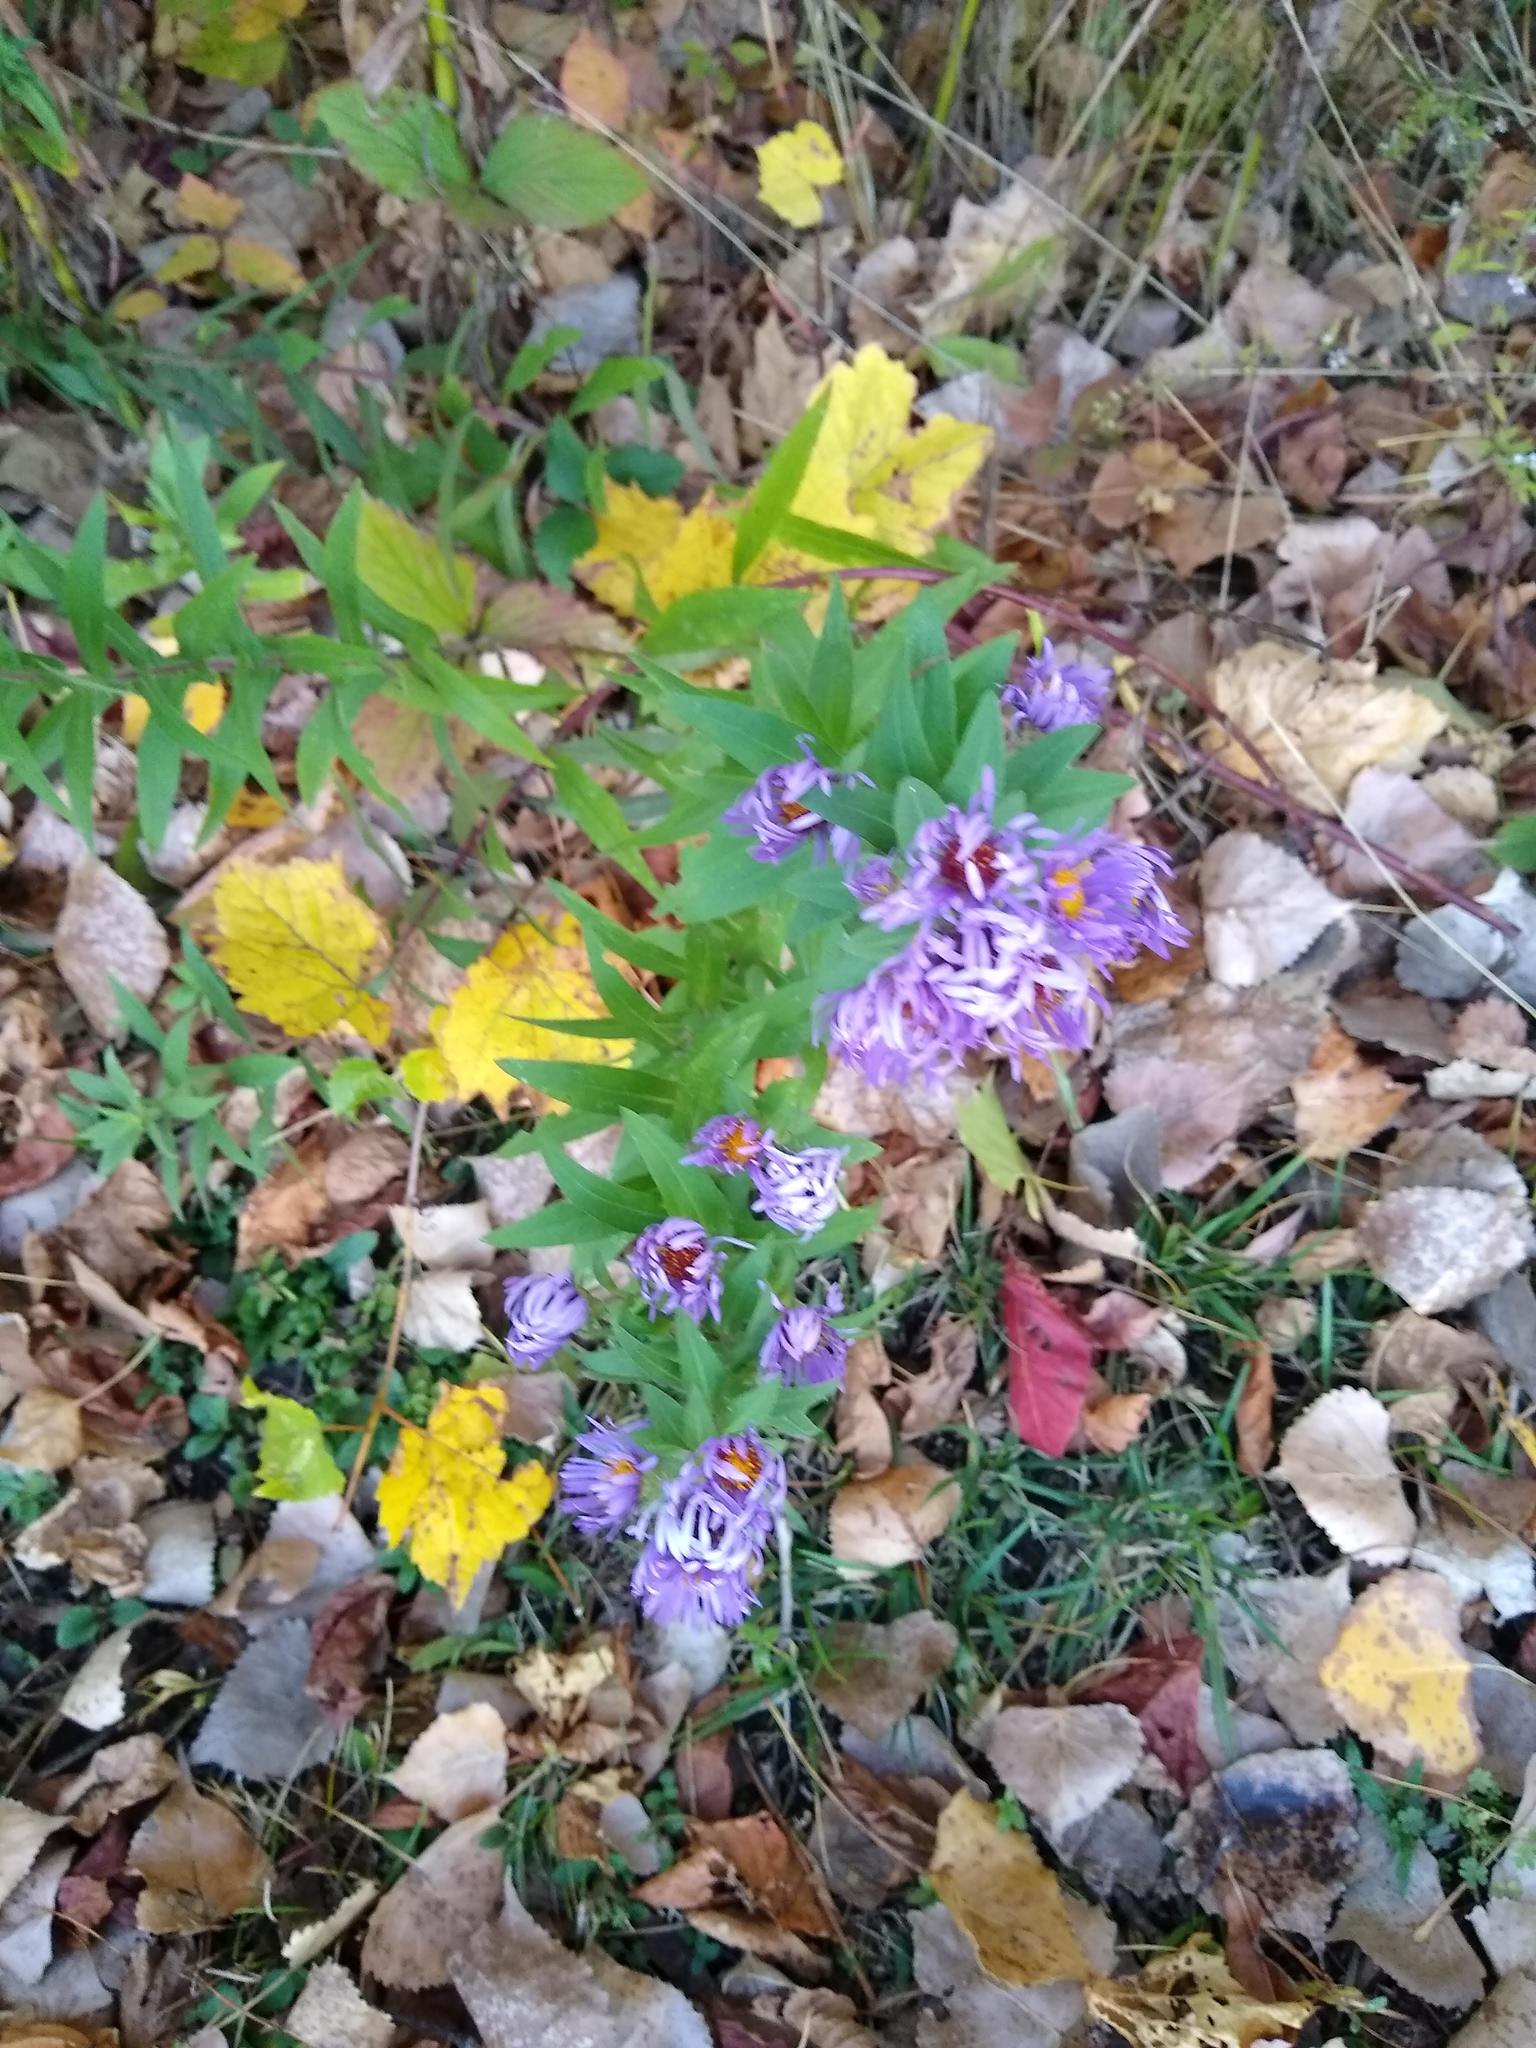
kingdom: Plantae
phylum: Tracheophyta
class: Magnoliopsida
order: Asterales
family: Asteraceae
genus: Symphyotrichum
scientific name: Symphyotrichum novae-angliae
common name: Michaelmas daisy
